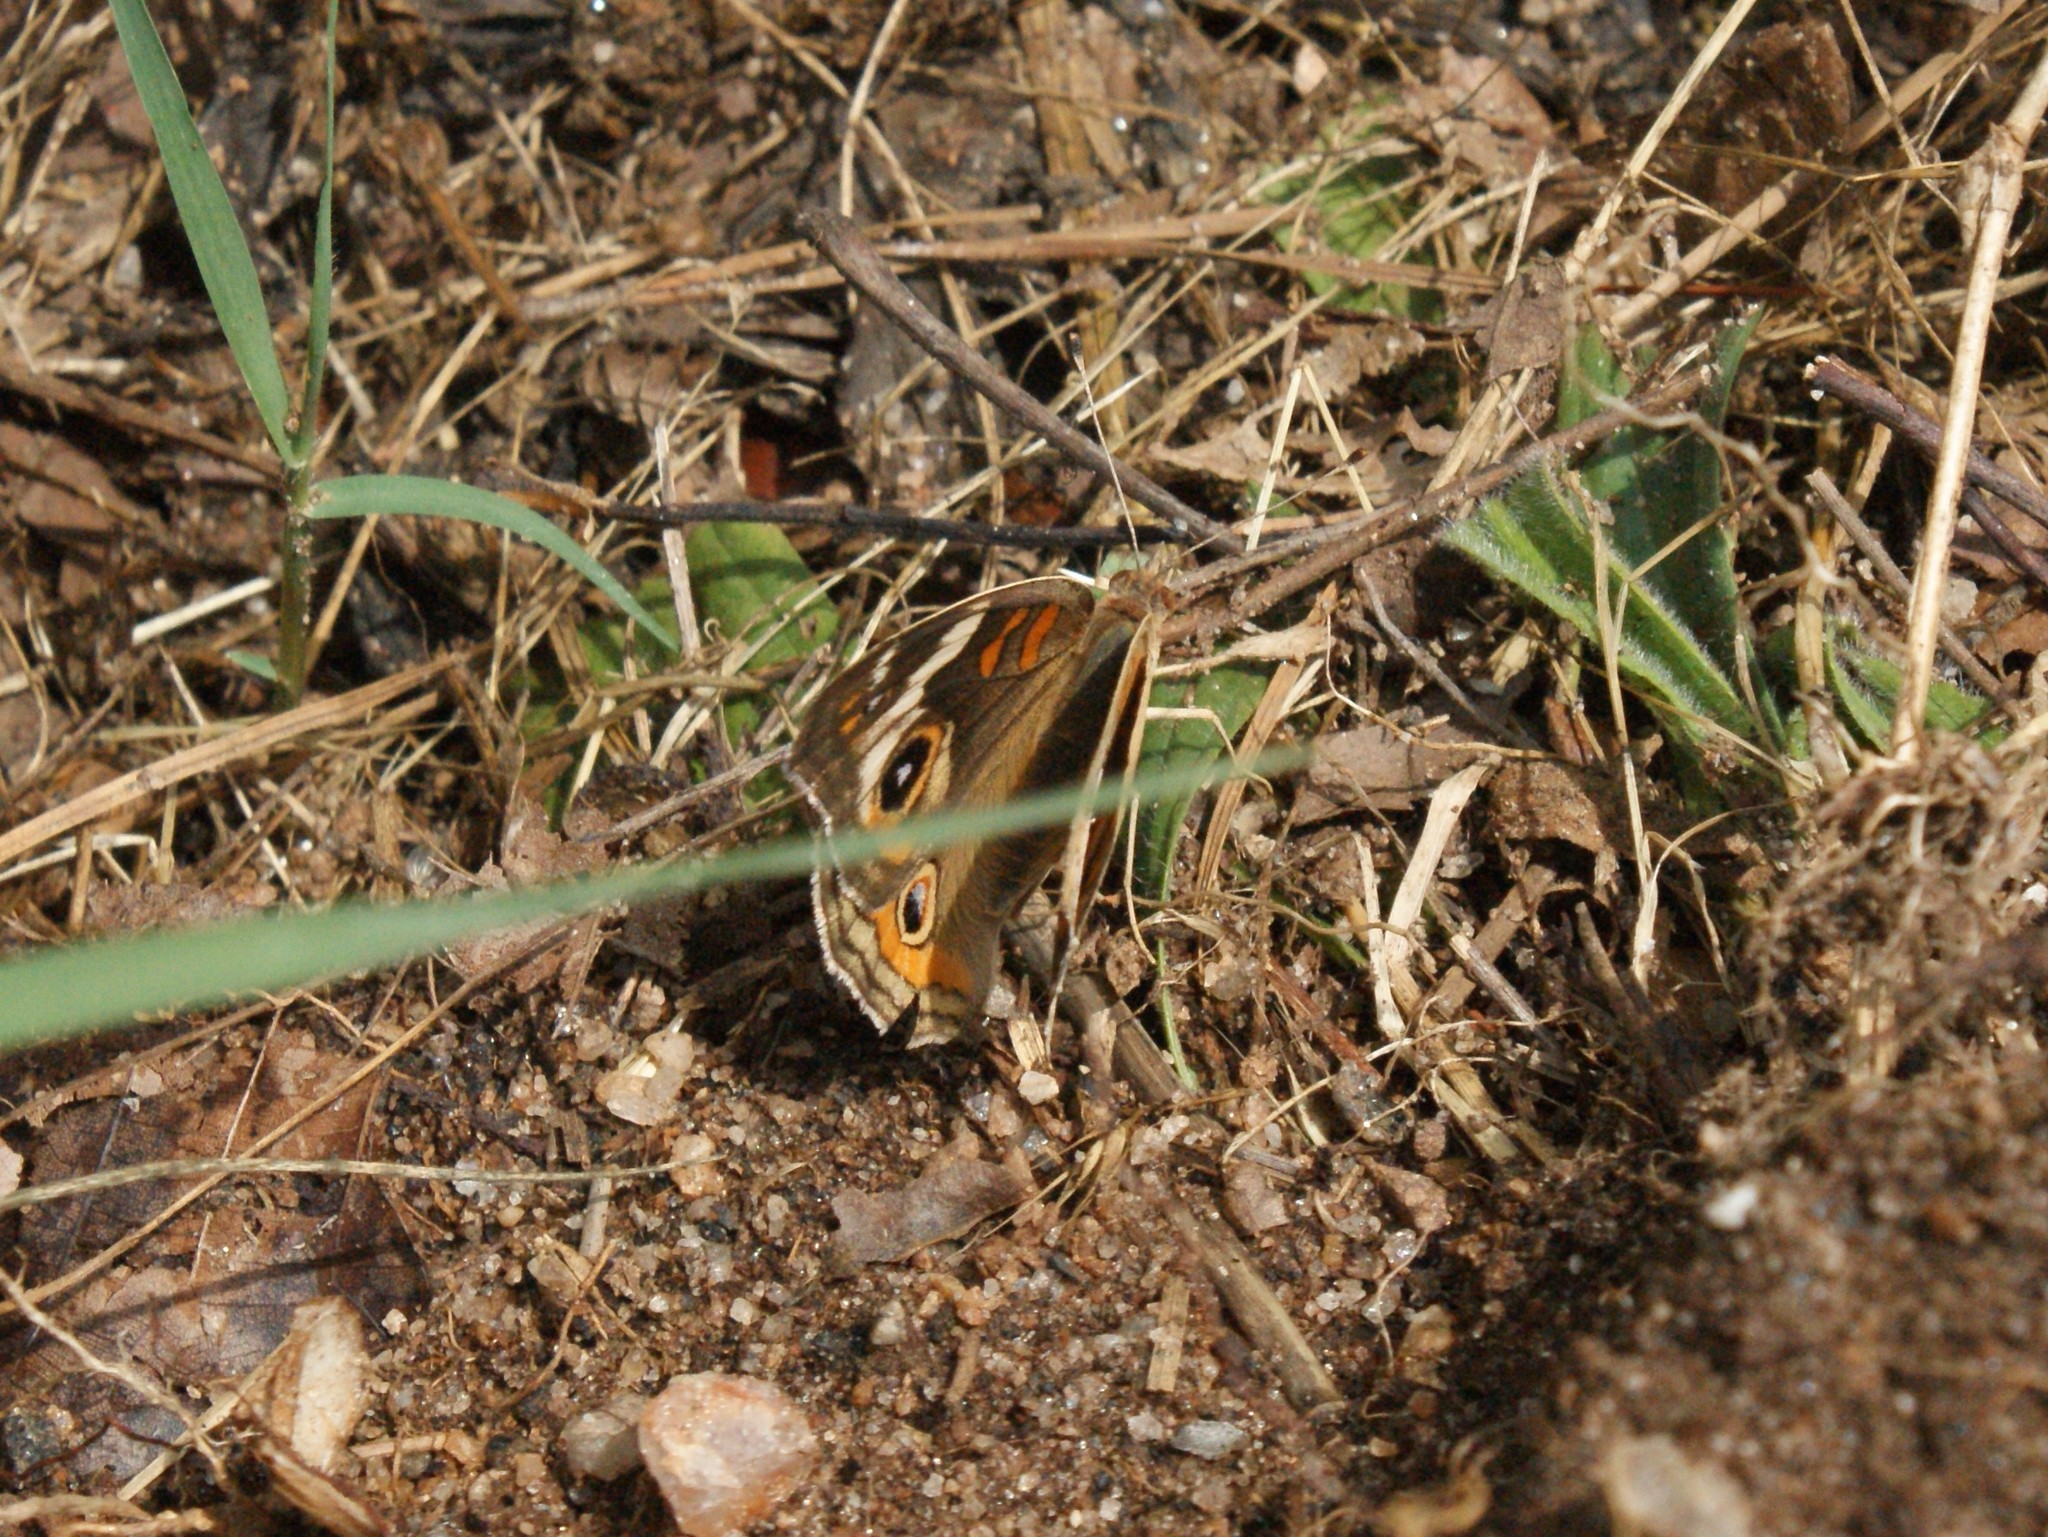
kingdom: Animalia
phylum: Arthropoda
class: Insecta
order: Lepidoptera
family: Nymphalidae
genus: Junonia
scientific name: Junonia coenia
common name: Common buckeye
